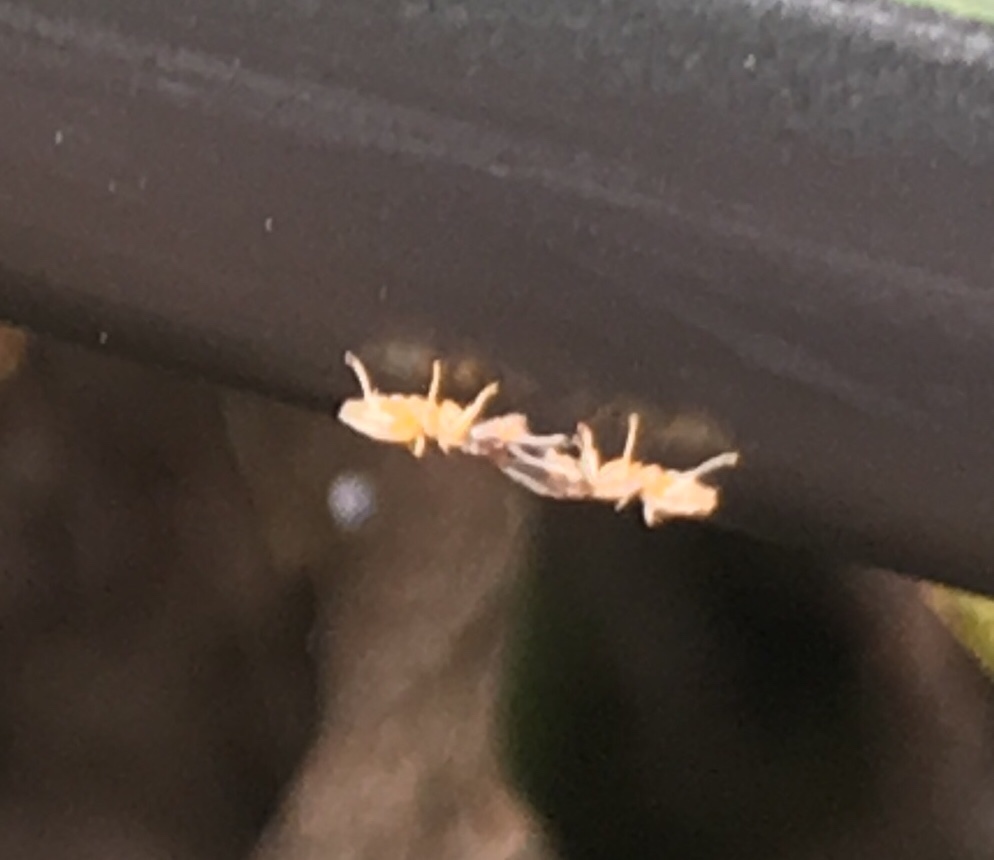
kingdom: Animalia
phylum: Arthropoda
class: Insecta
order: Hymenoptera
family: Formicidae
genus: Tapinoma
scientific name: Tapinoma melanocephalum
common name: Ghost ant
